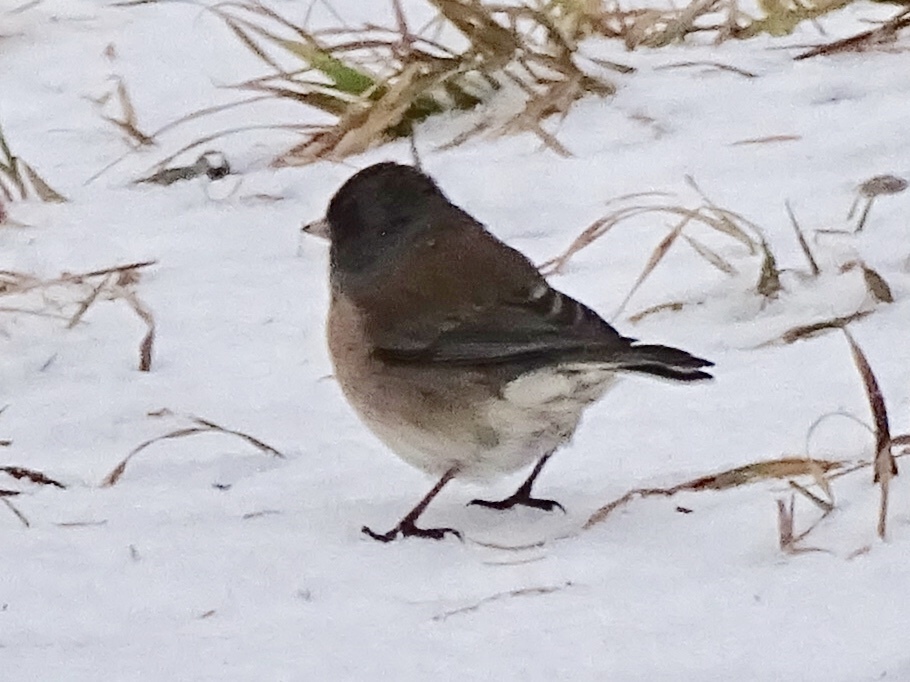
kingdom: Animalia
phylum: Chordata
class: Aves
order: Passeriformes
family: Passerellidae
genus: Junco
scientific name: Junco hyemalis
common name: Dark-eyed junco
